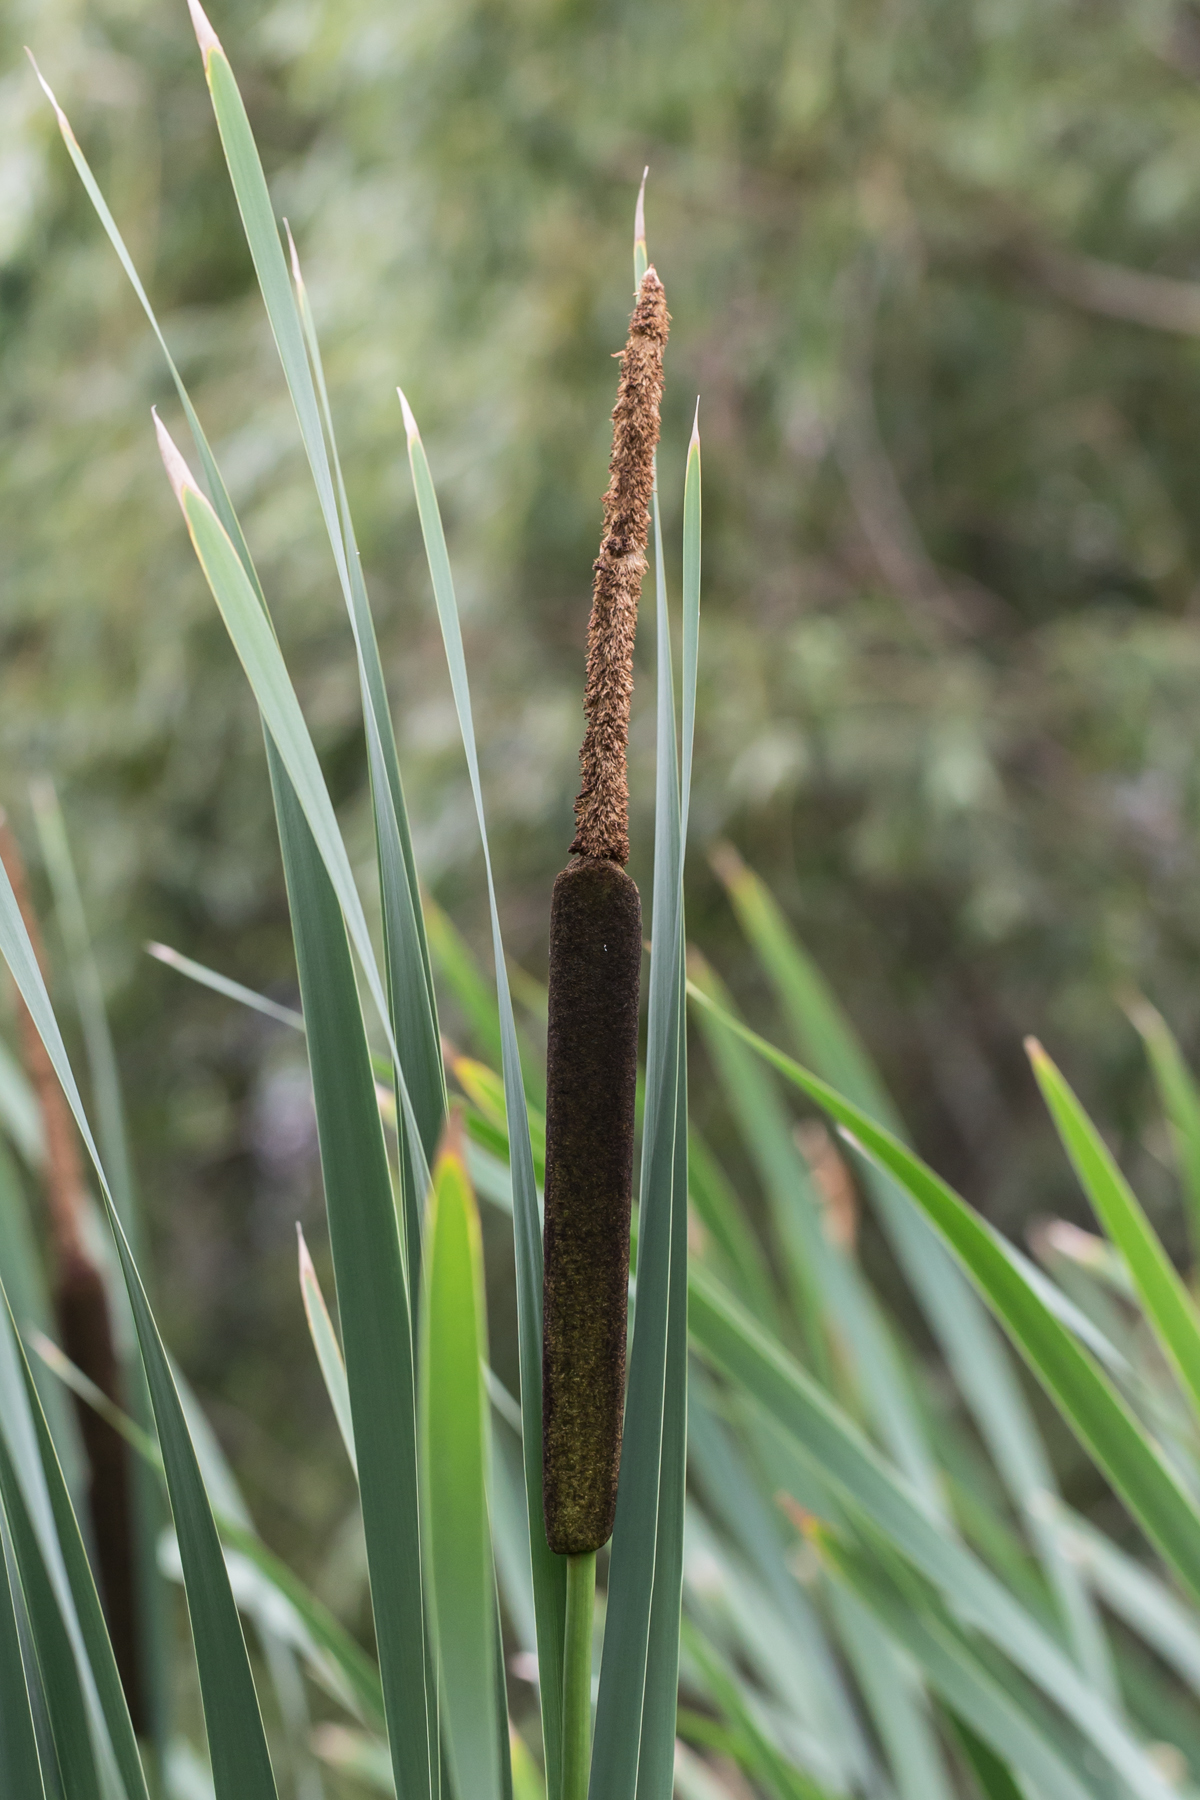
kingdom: Plantae
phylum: Tracheophyta
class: Liliopsida
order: Poales
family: Typhaceae
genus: Typha
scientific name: Typha latifolia
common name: Broadleaf cattail
